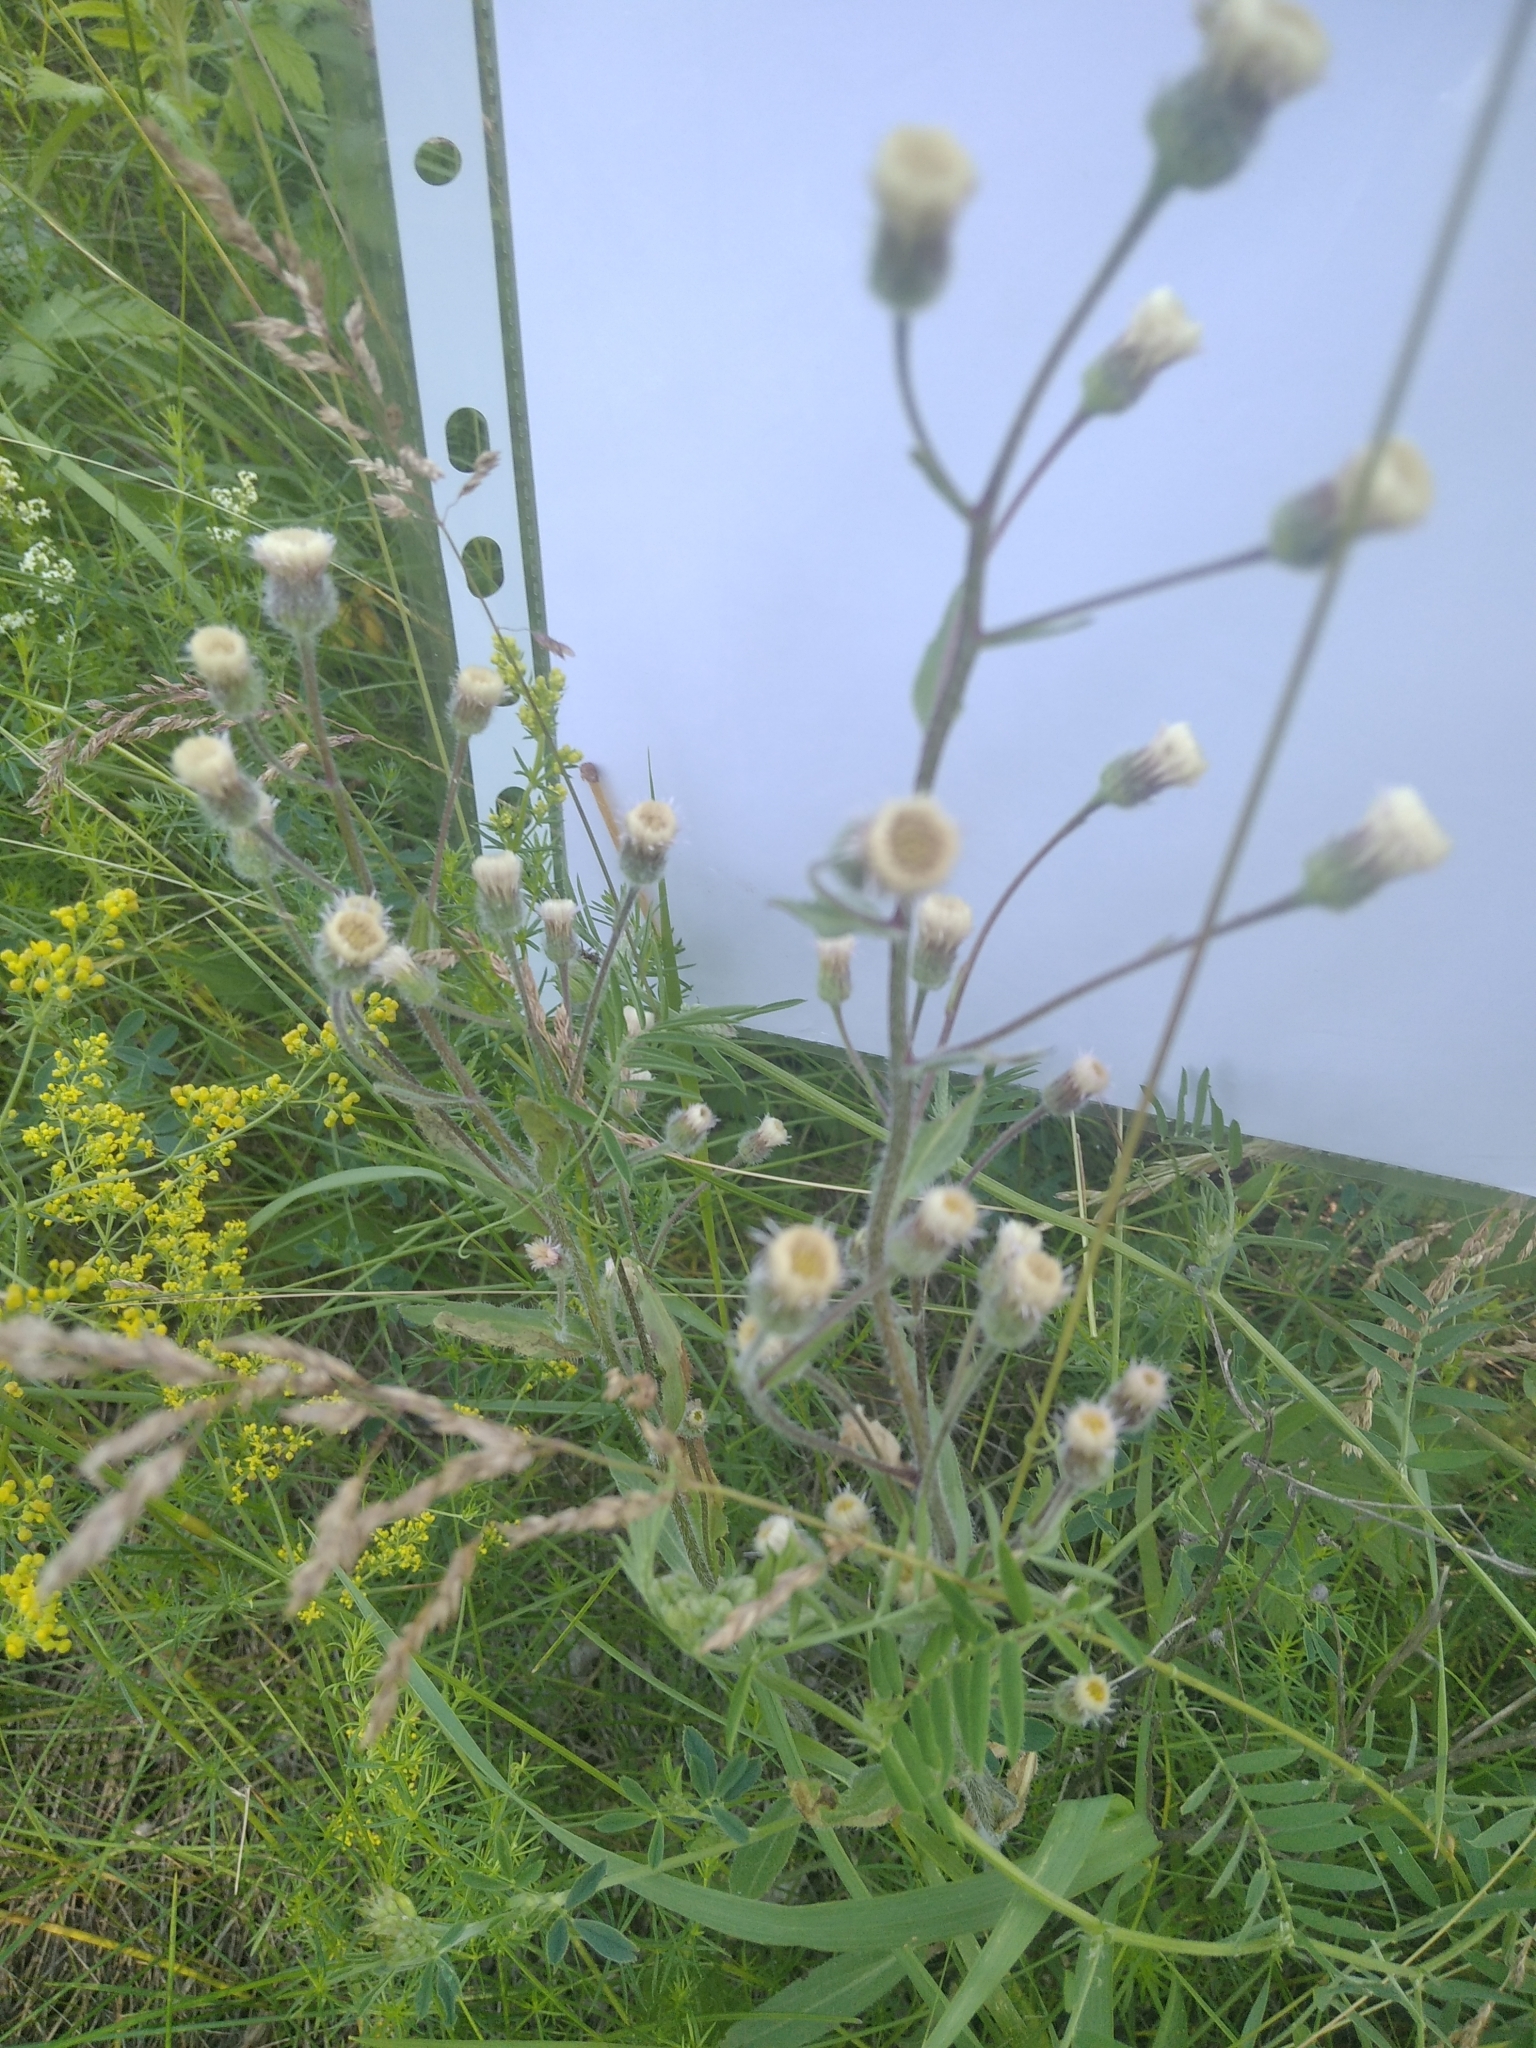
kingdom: Plantae
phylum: Tracheophyta
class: Magnoliopsida
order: Asterales
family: Asteraceae
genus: Erigeron
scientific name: Erigeron acris
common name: Blue fleabane
